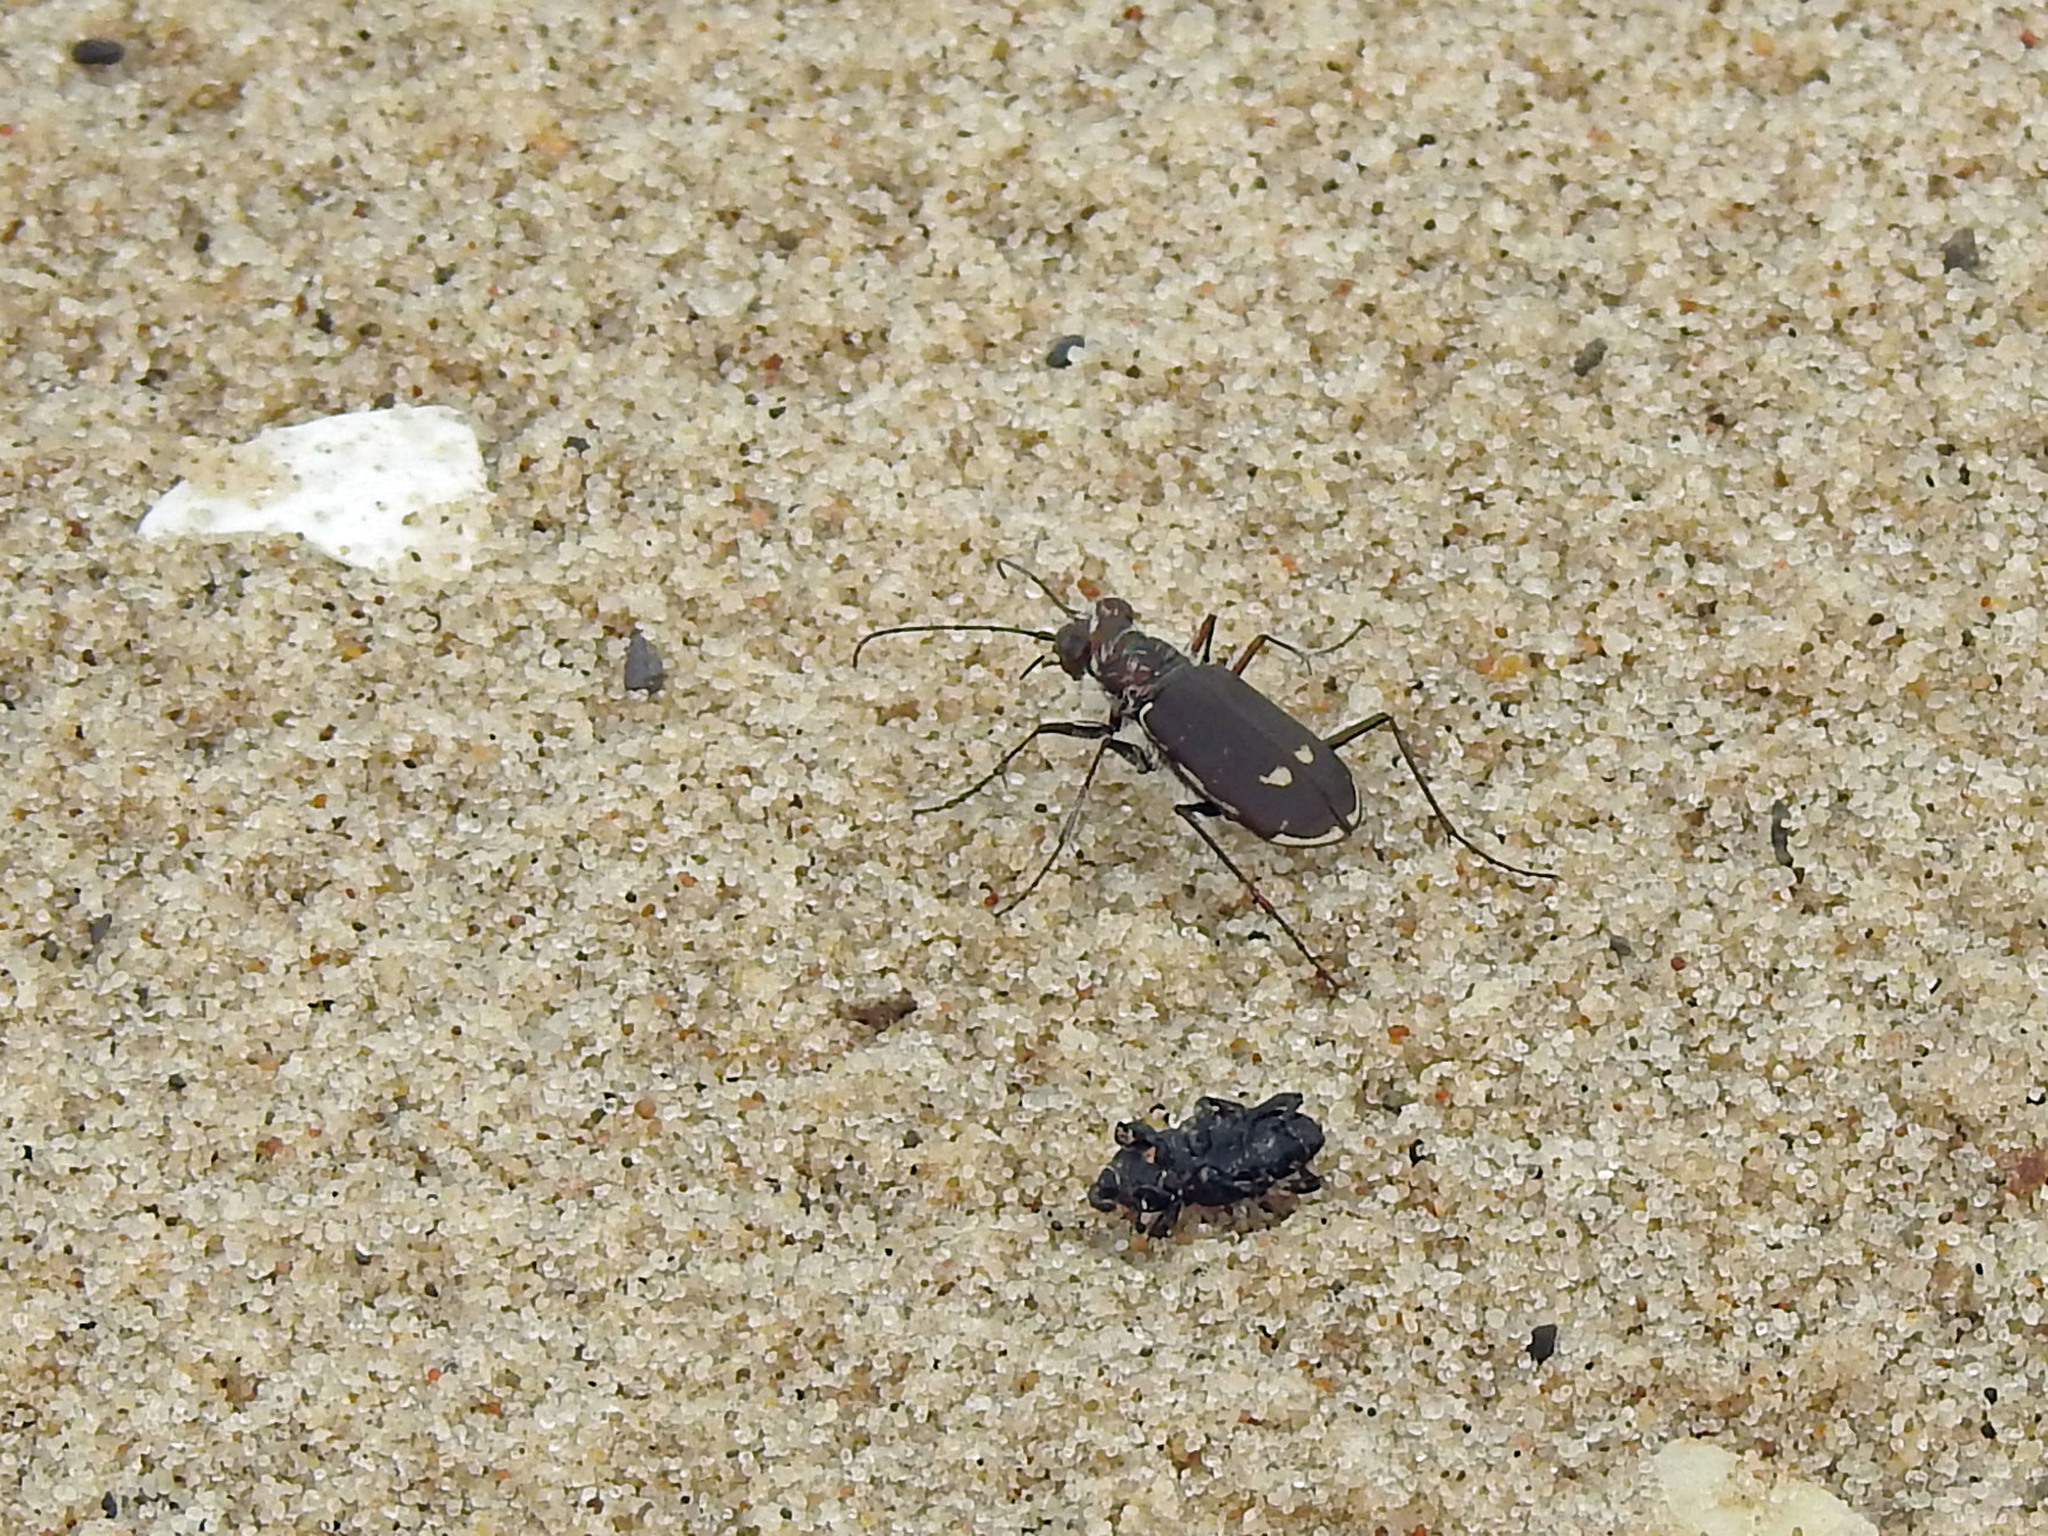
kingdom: Animalia
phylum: Arthropoda
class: Insecta
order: Coleoptera
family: Carabidae
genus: Cicindela
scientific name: Cicindela hirticollis
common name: Hairy-necked tiger beetle
